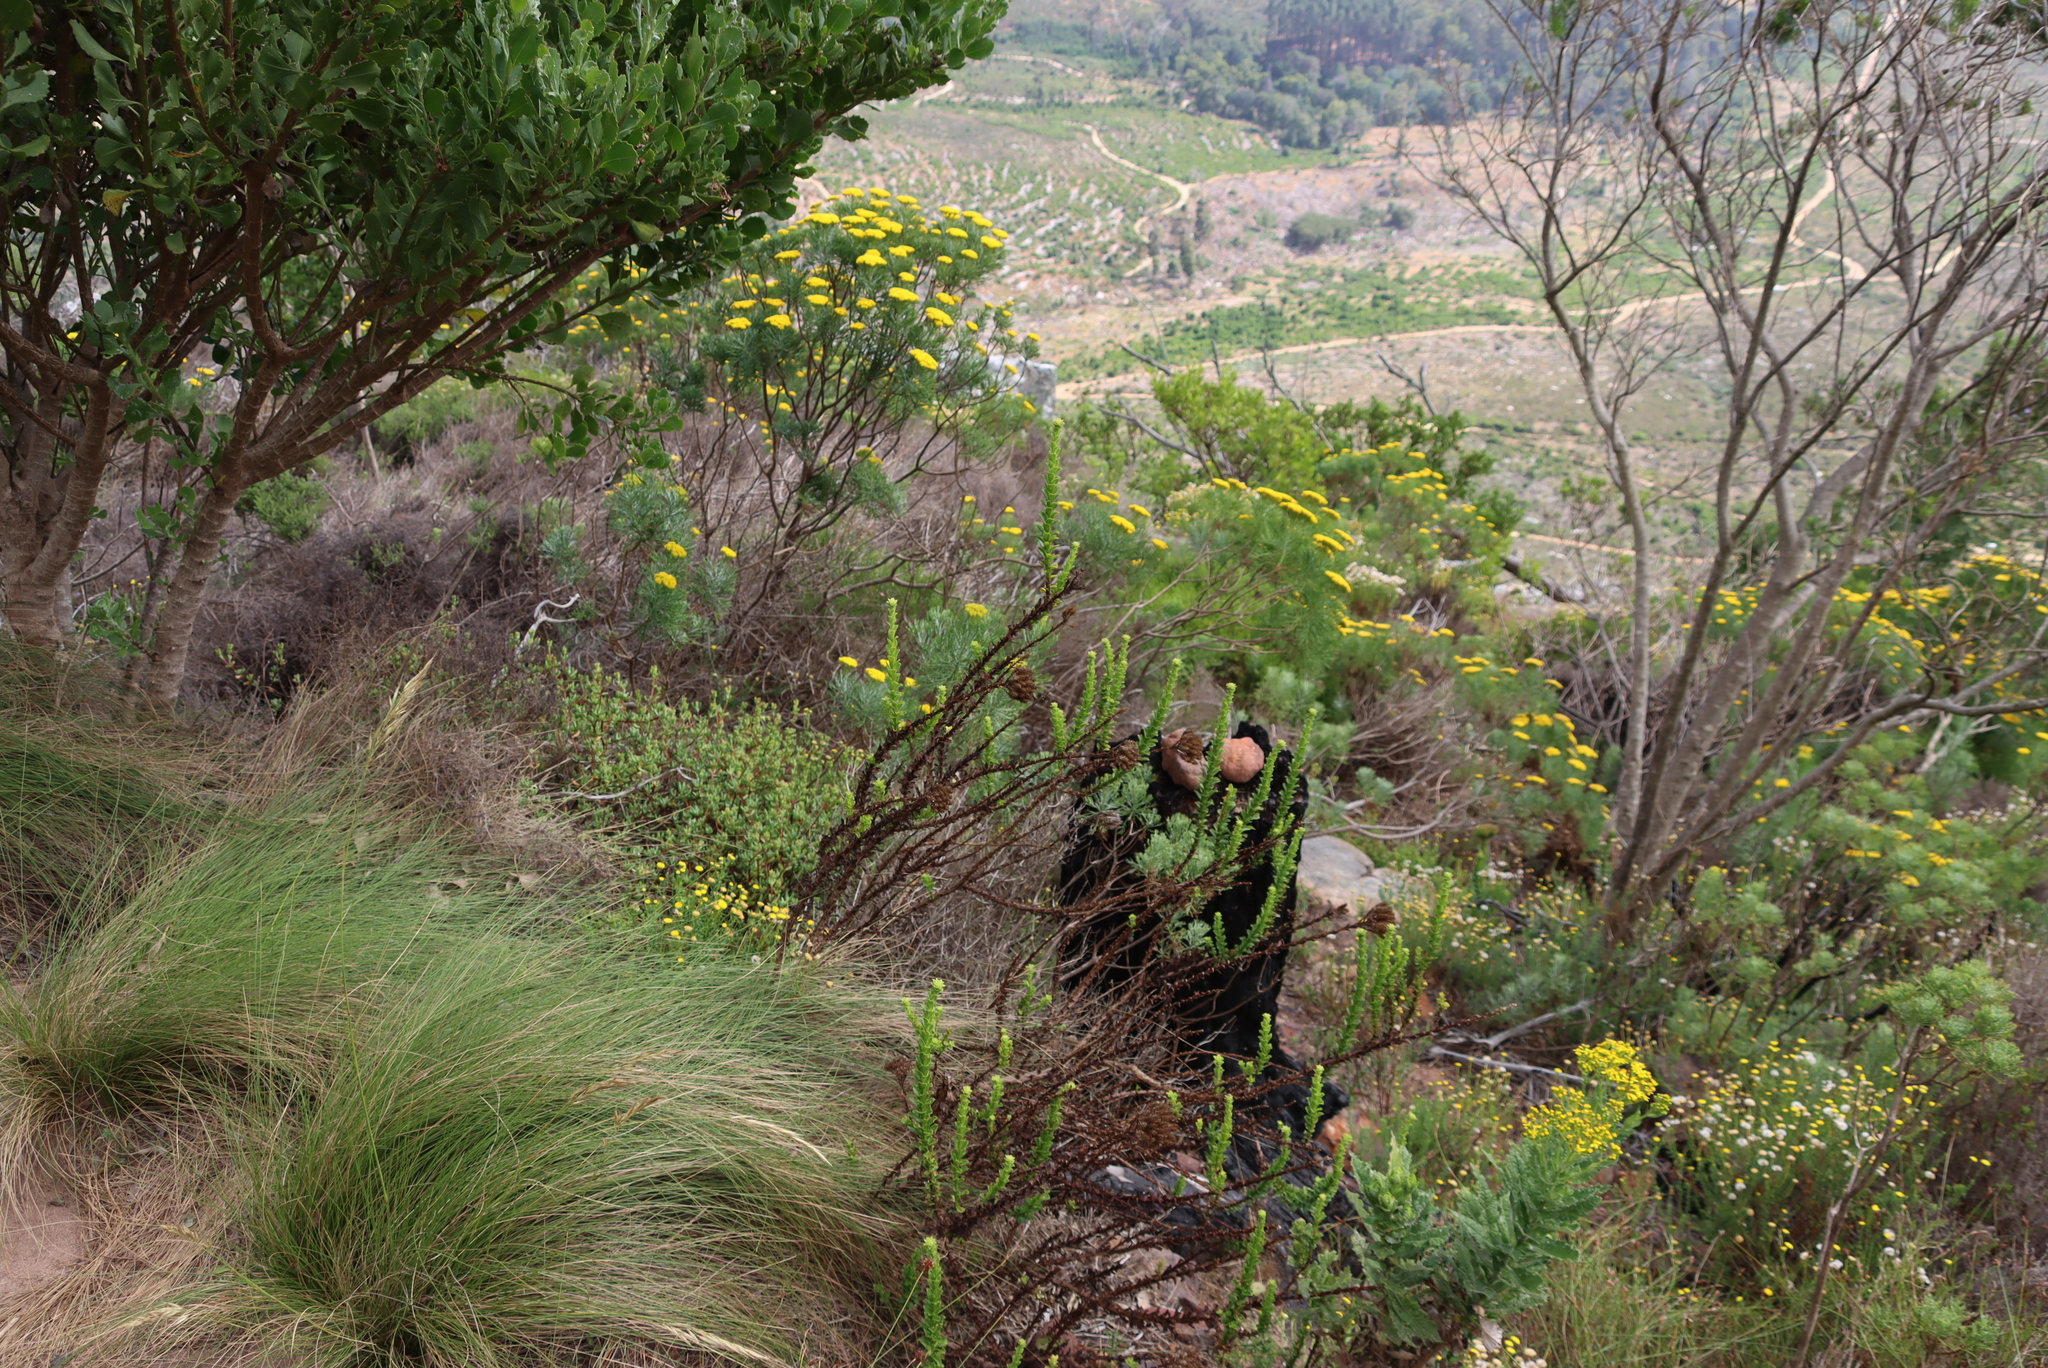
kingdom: Plantae
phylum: Tracheophyta
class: Magnoliopsida
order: Asterales
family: Asteraceae
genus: Hymenolepis
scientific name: Hymenolepis crithmifolia
